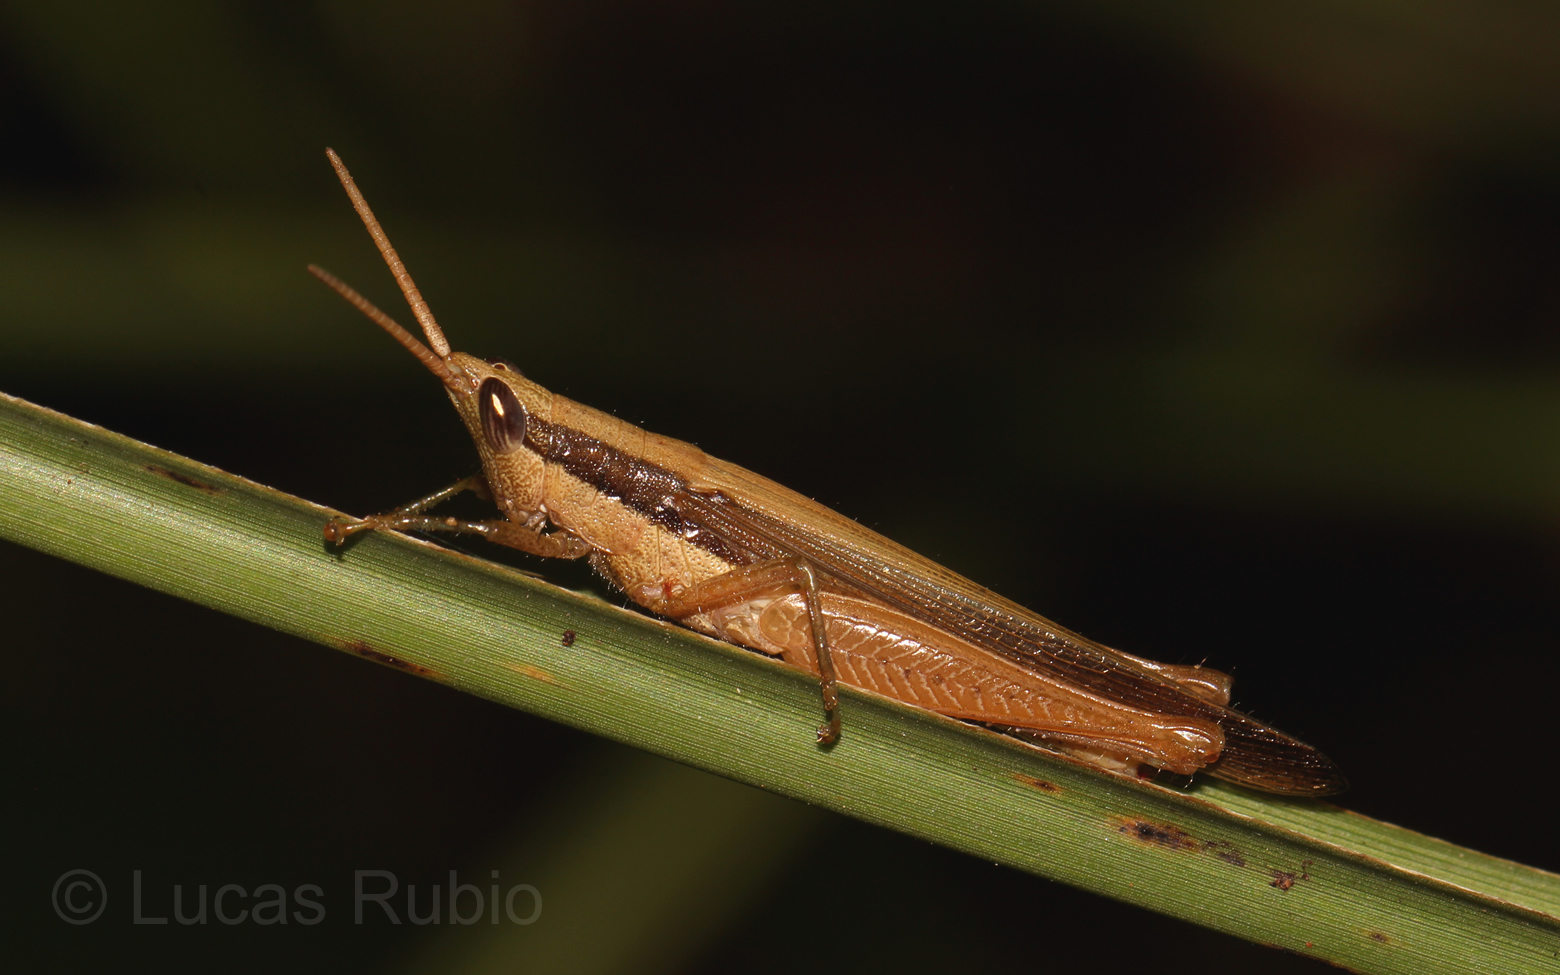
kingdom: Animalia
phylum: Arthropoda
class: Insecta
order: Orthoptera
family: Acrididae
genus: Stenopola
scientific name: Stenopola pallida
